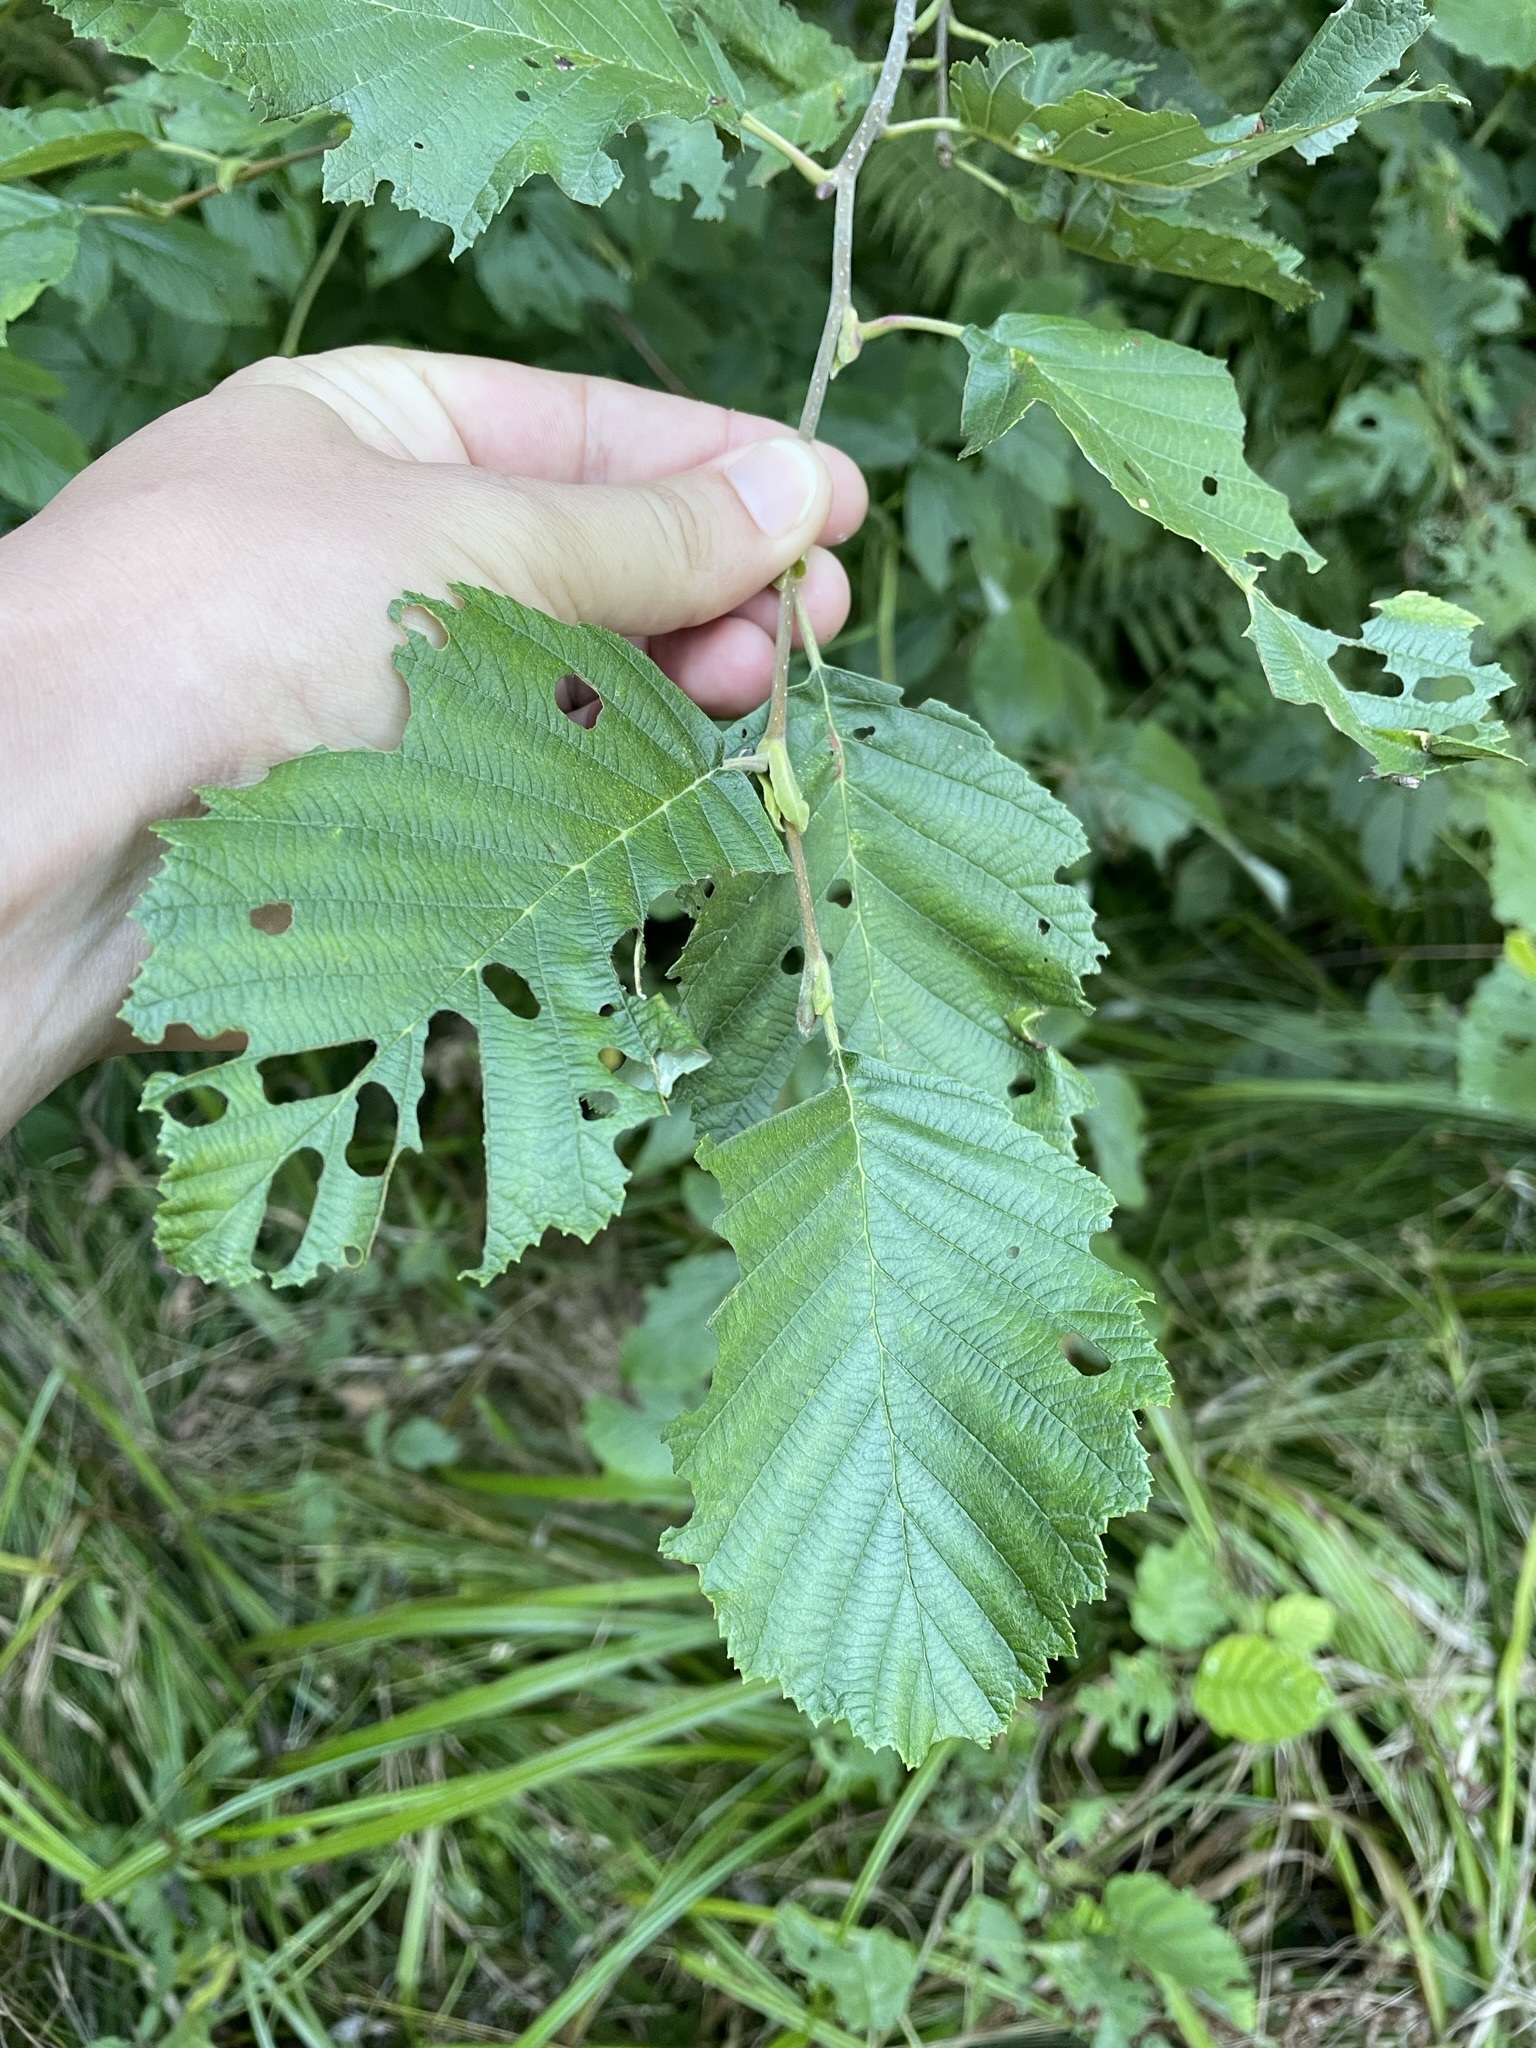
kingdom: Plantae
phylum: Tracheophyta
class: Magnoliopsida
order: Fagales
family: Betulaceae
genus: Alnus
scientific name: Alnus incana
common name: Grey alder
